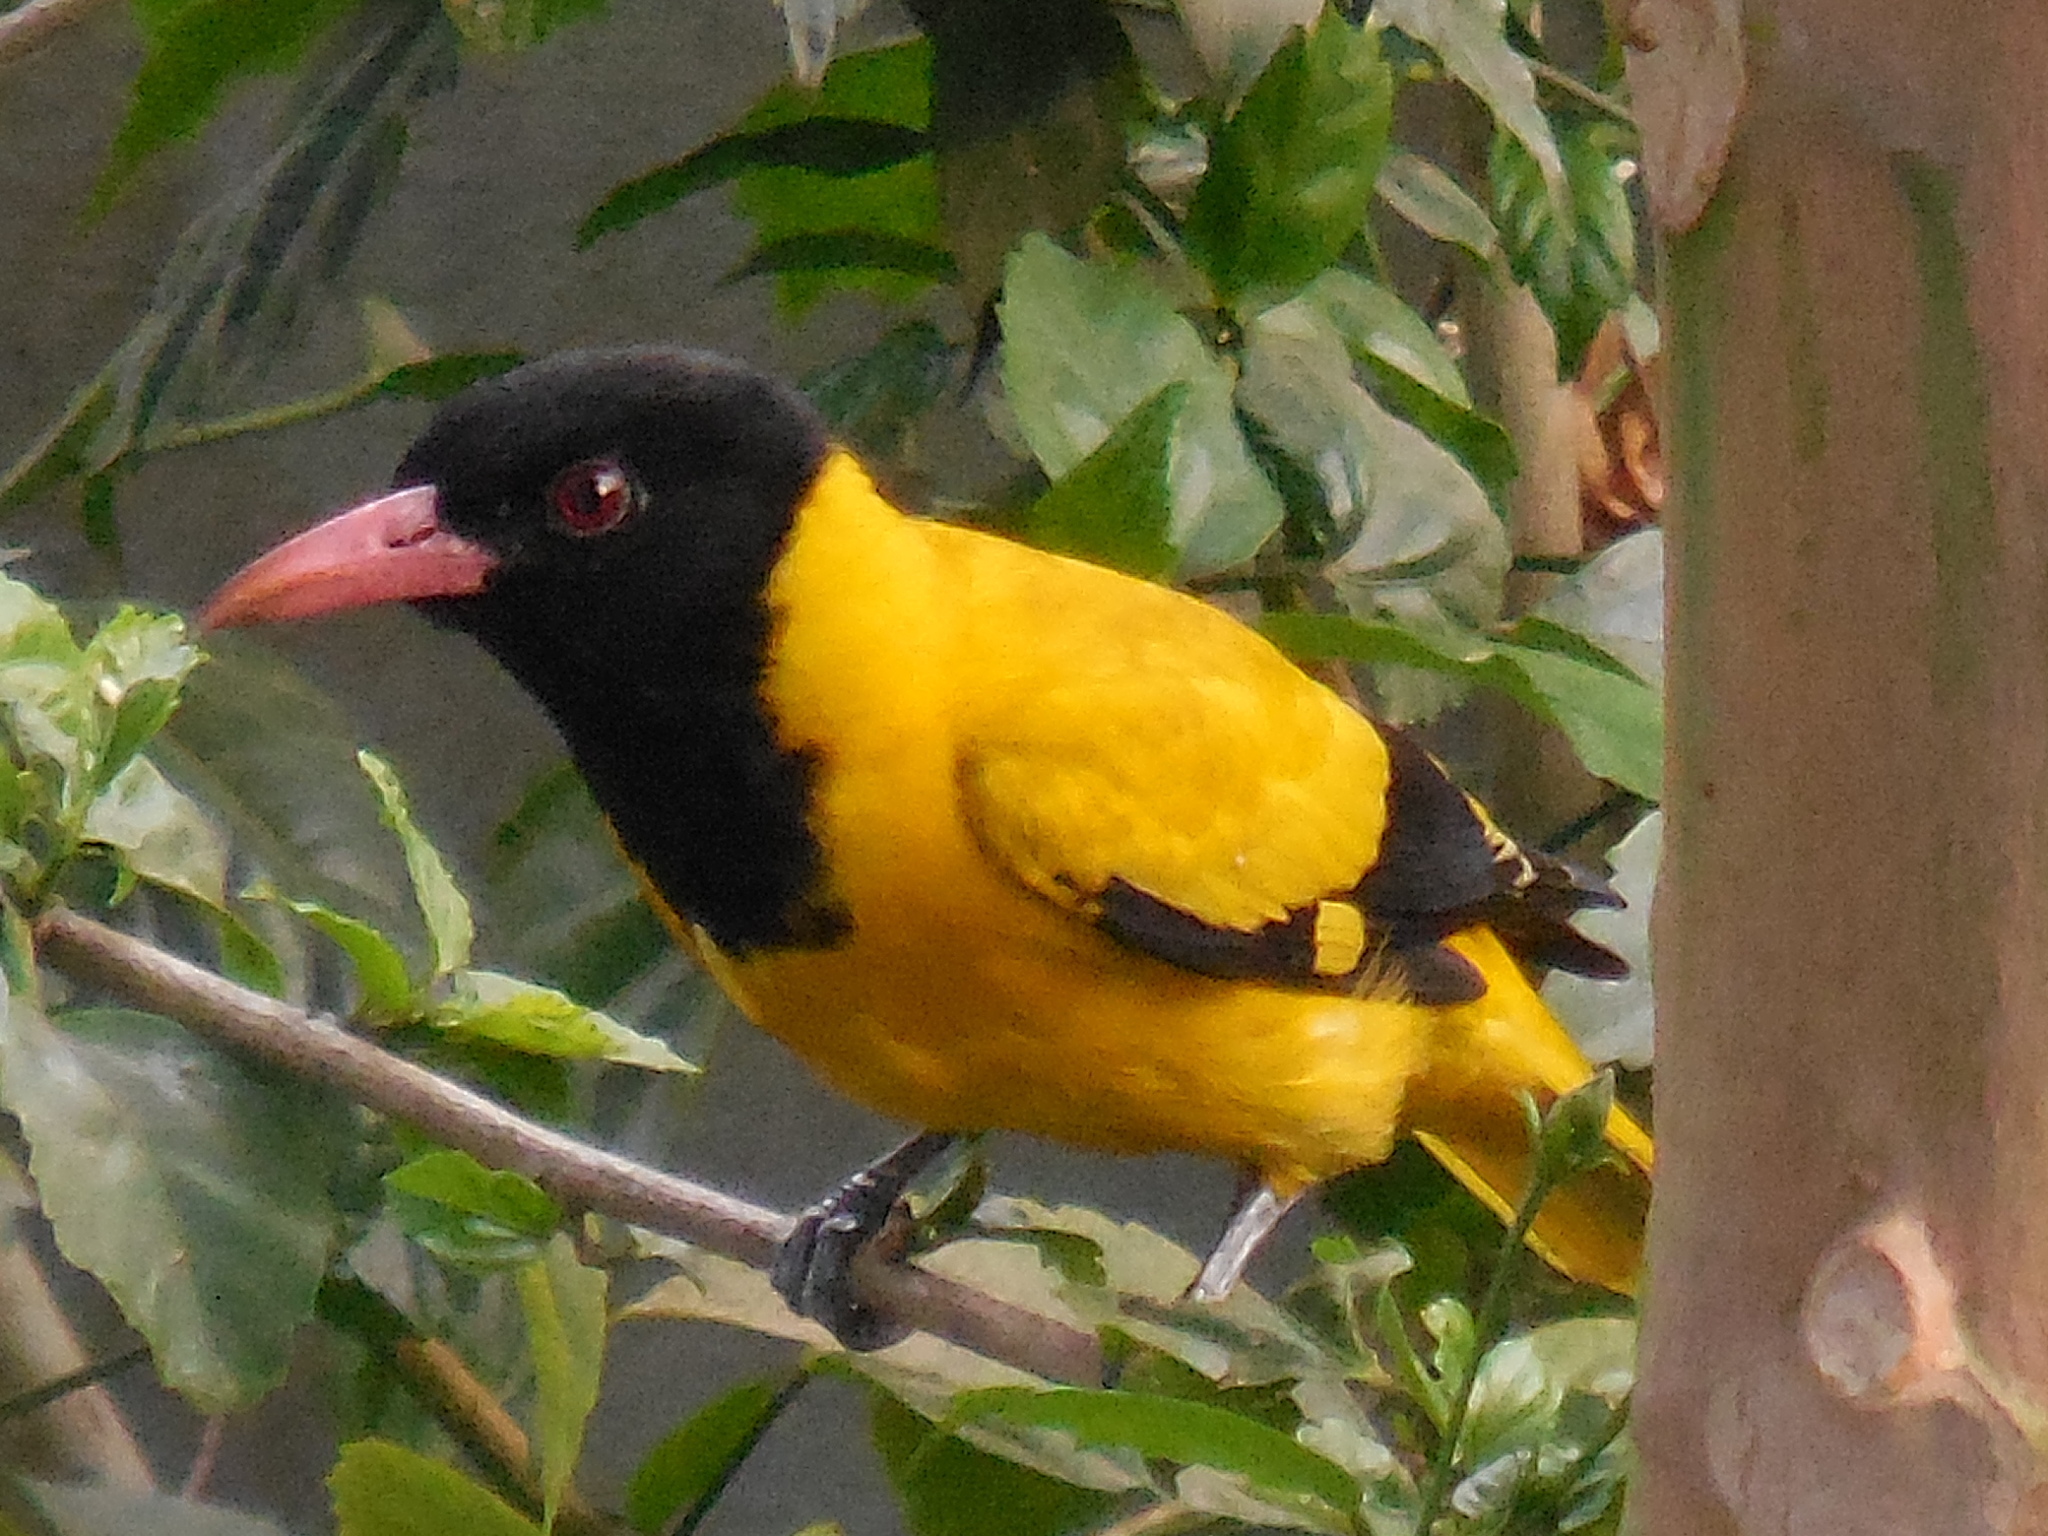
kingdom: Animalia
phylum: Chordata
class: Aves
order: Passeriformes
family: Oriolidae
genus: Oriolus
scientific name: Oriolus xanthornus
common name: Black-hooded oriole
